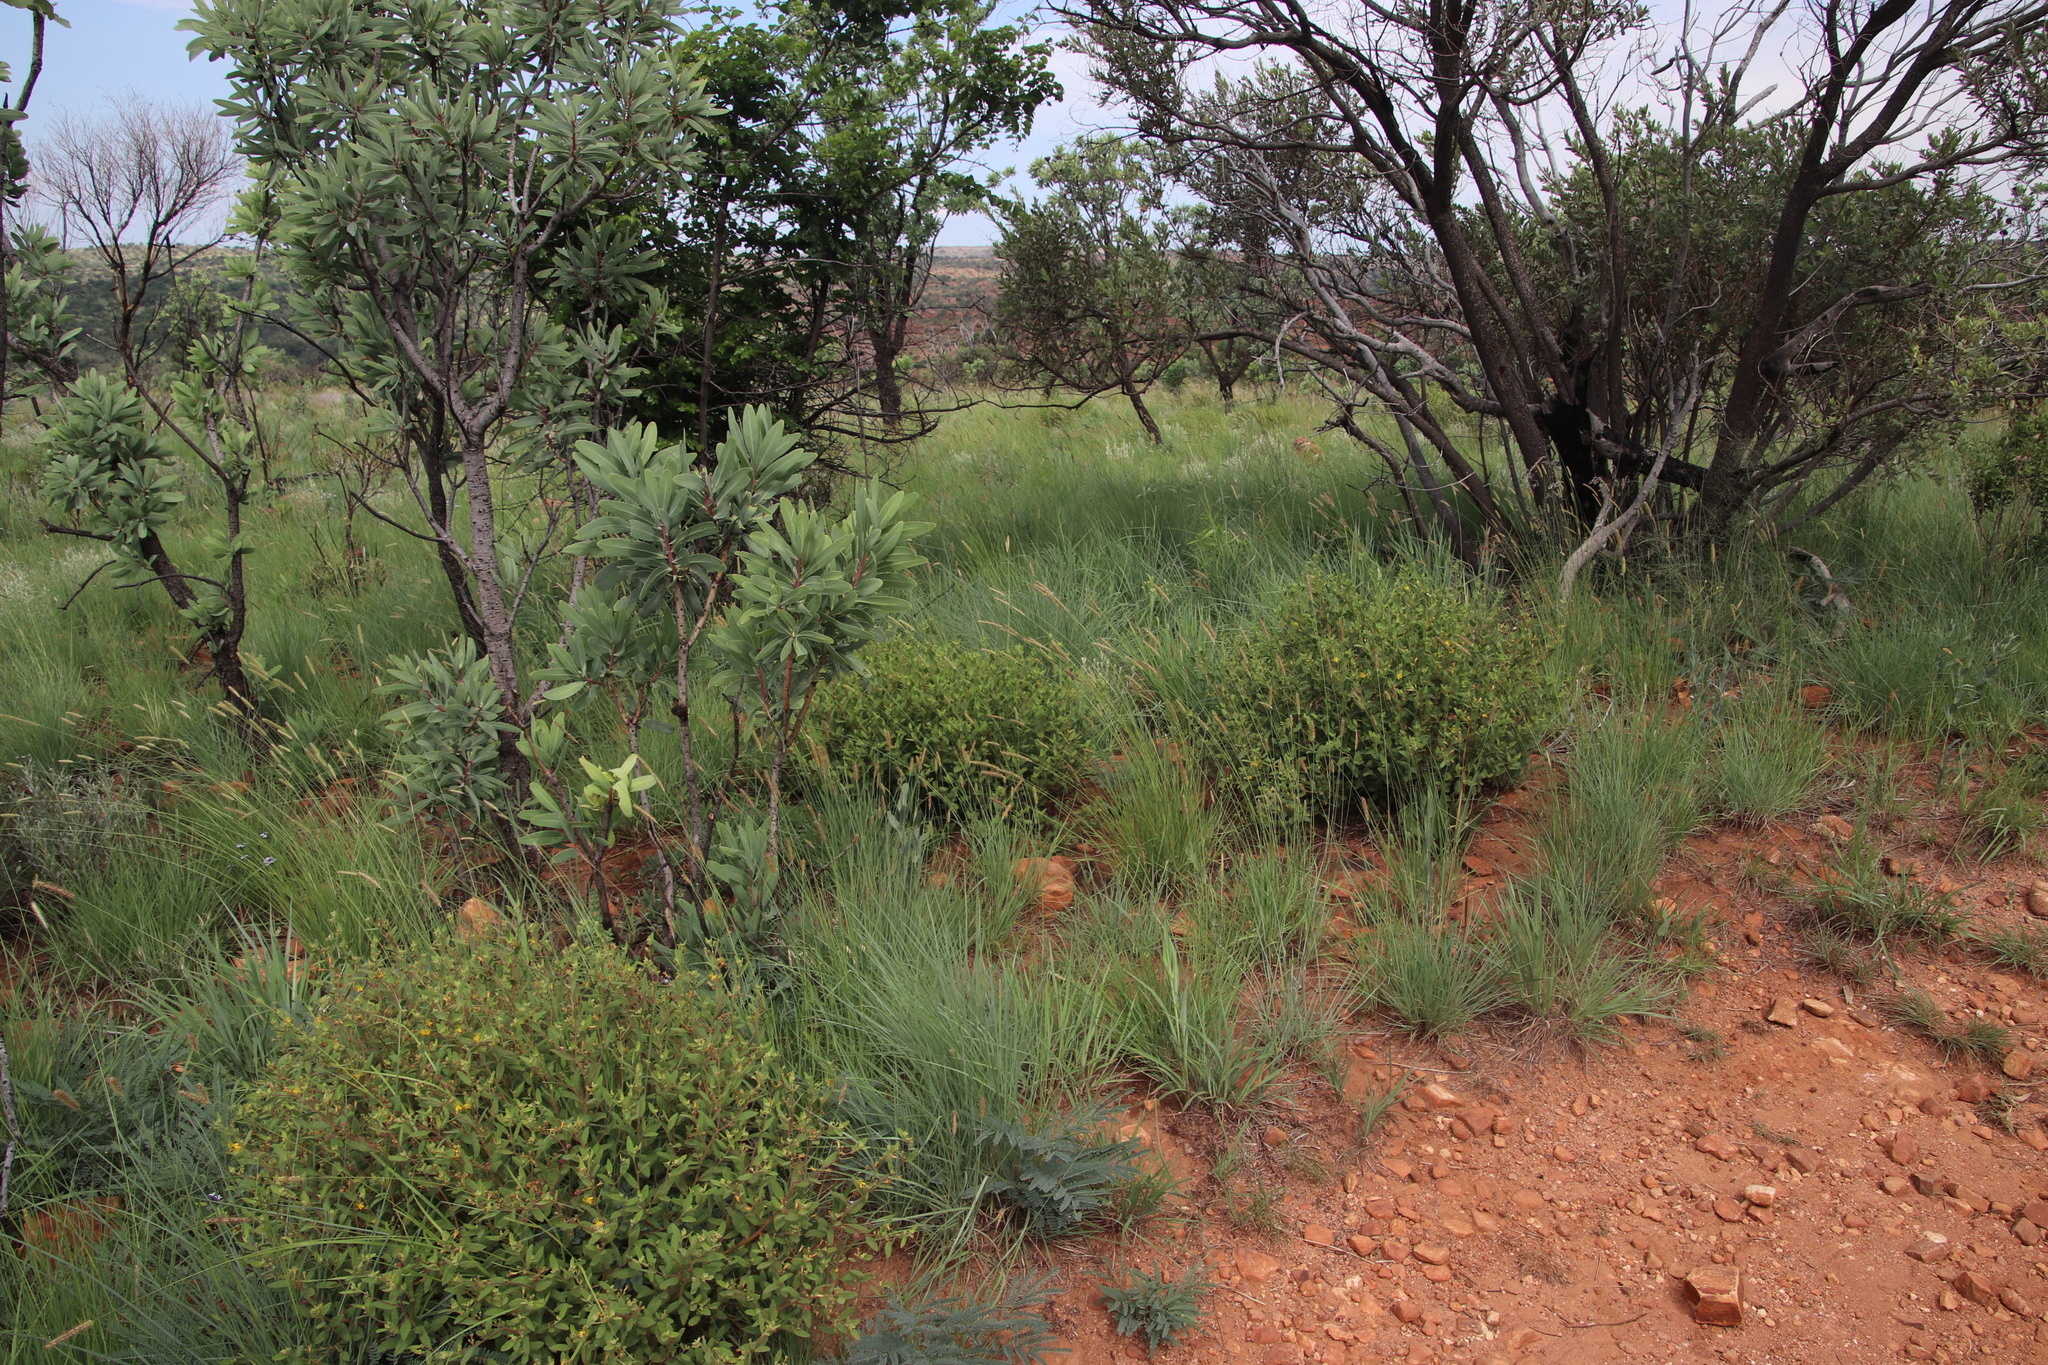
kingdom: Plantae
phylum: Tracheophyta
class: Magnoliopsida
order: Malvales
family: Malvaceae
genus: Triumfetta
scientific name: Triumfetta sonderi
